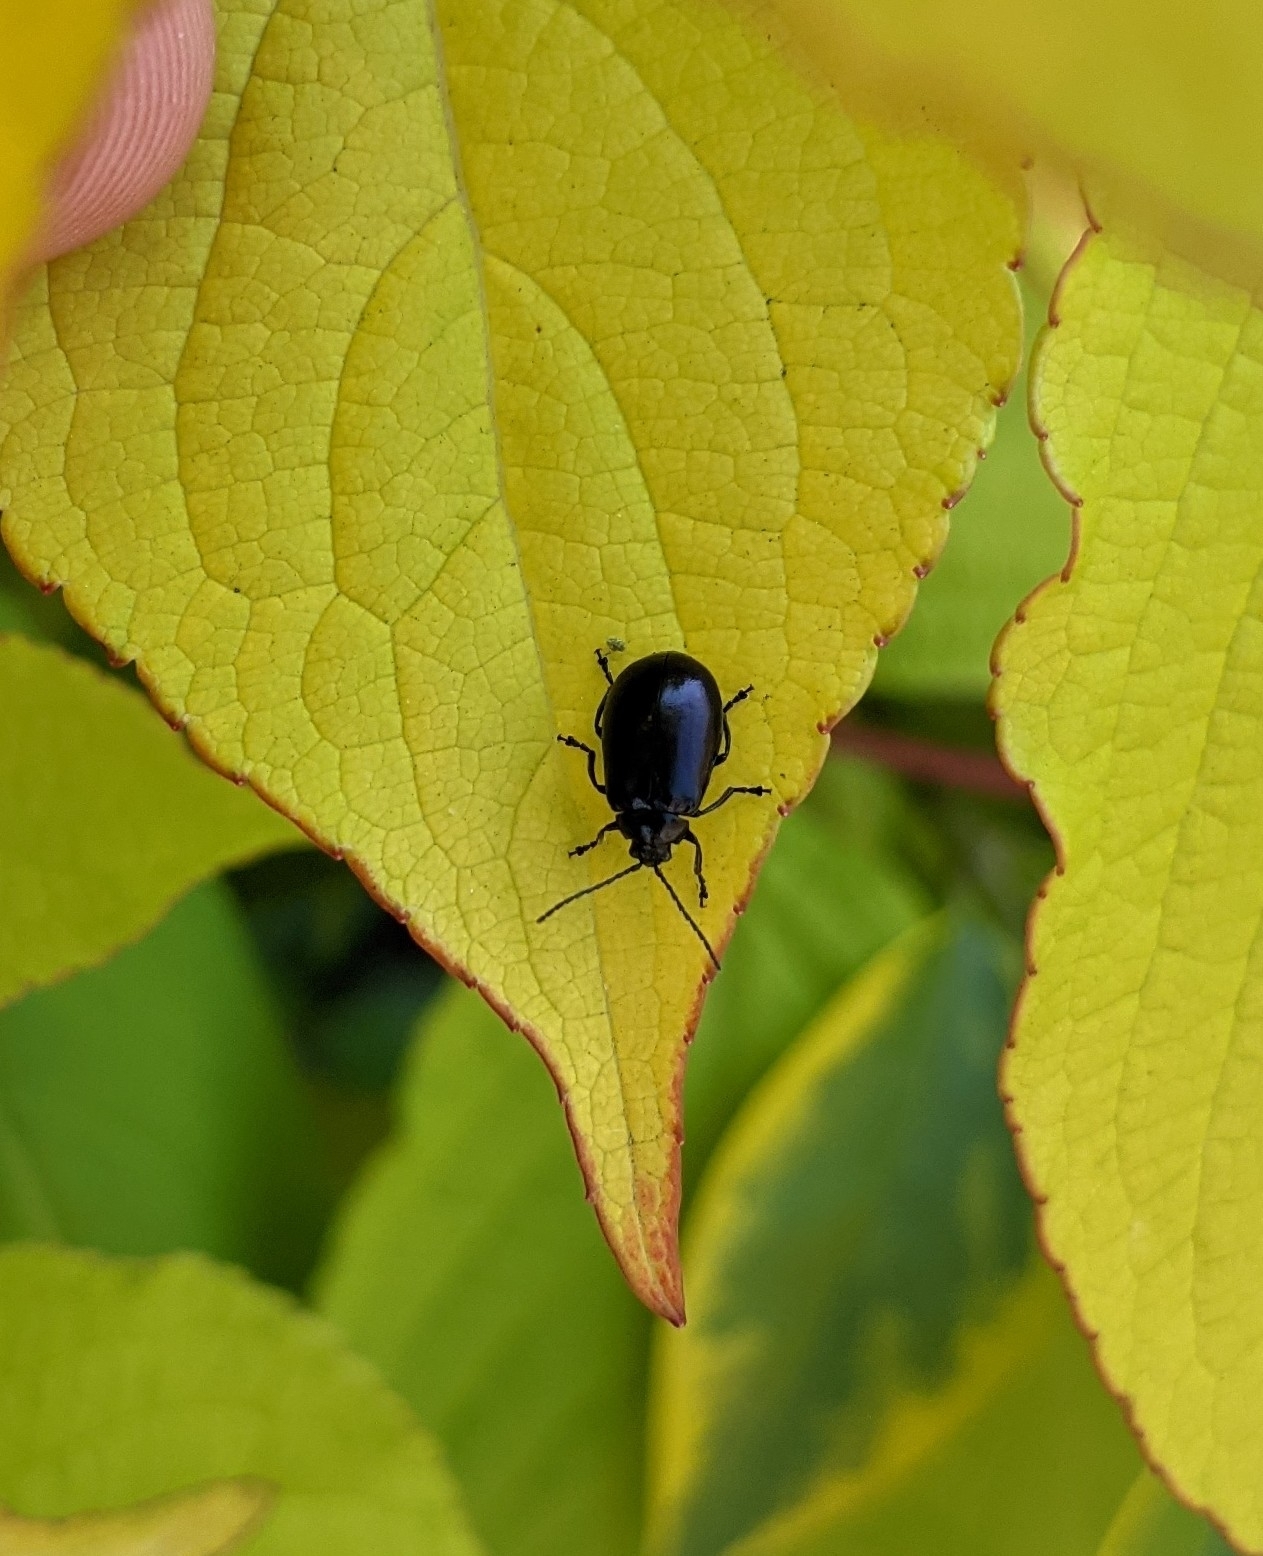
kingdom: Animalia
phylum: Arthropoda
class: Insecta
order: Coleoptera
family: Chrysomelidae
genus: Agelastica
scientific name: Agelastica alni
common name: Alder leaf beetle
